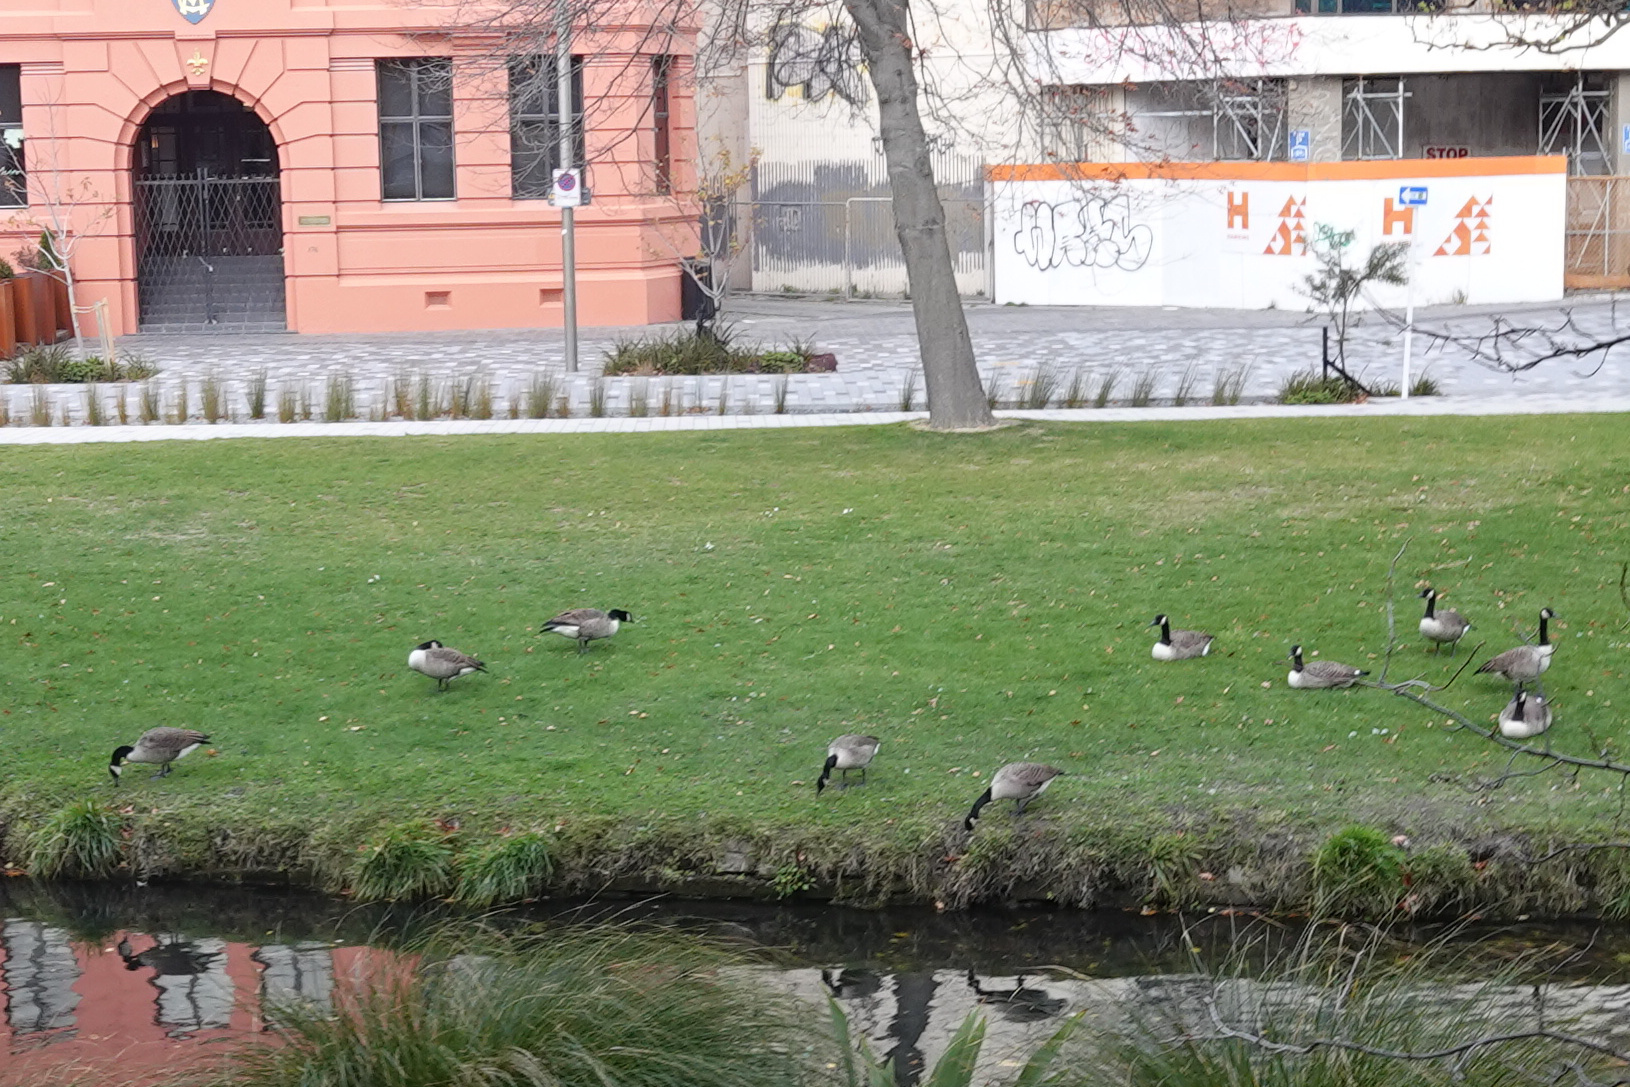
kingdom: Animalia
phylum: Chordata
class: Aves
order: Anseriformes
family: Anatidae
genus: Branta
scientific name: Branta canadensis
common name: Canada goose
